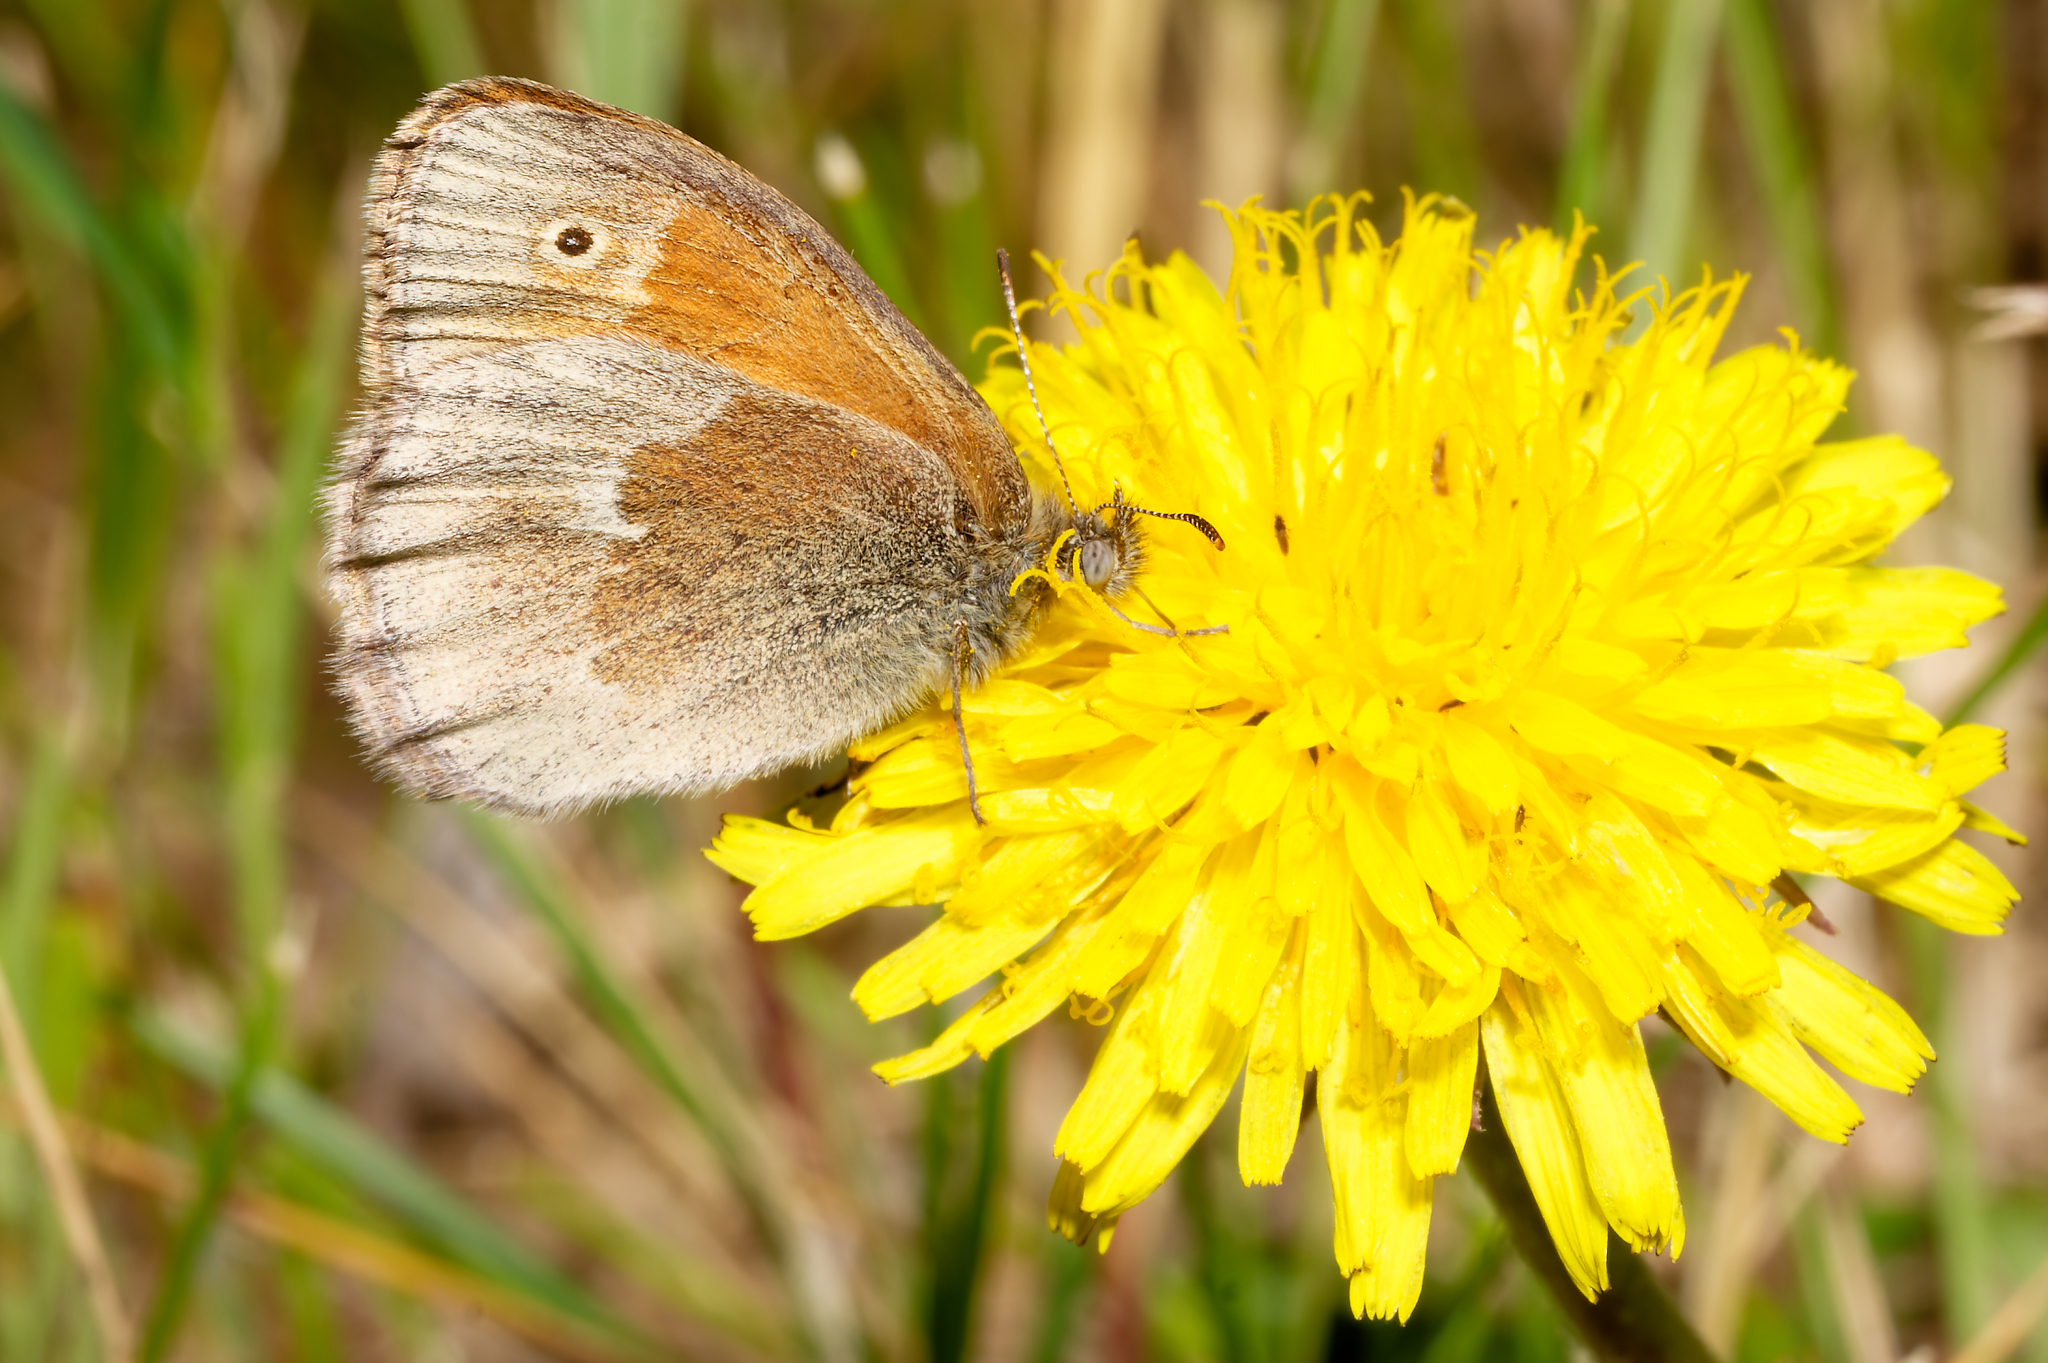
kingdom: Animalia
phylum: Arthropoda
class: Insecta
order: Lepidoptera
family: Nymphalidae
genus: Coenonympha
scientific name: Coenonympha california
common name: Common ringlet
